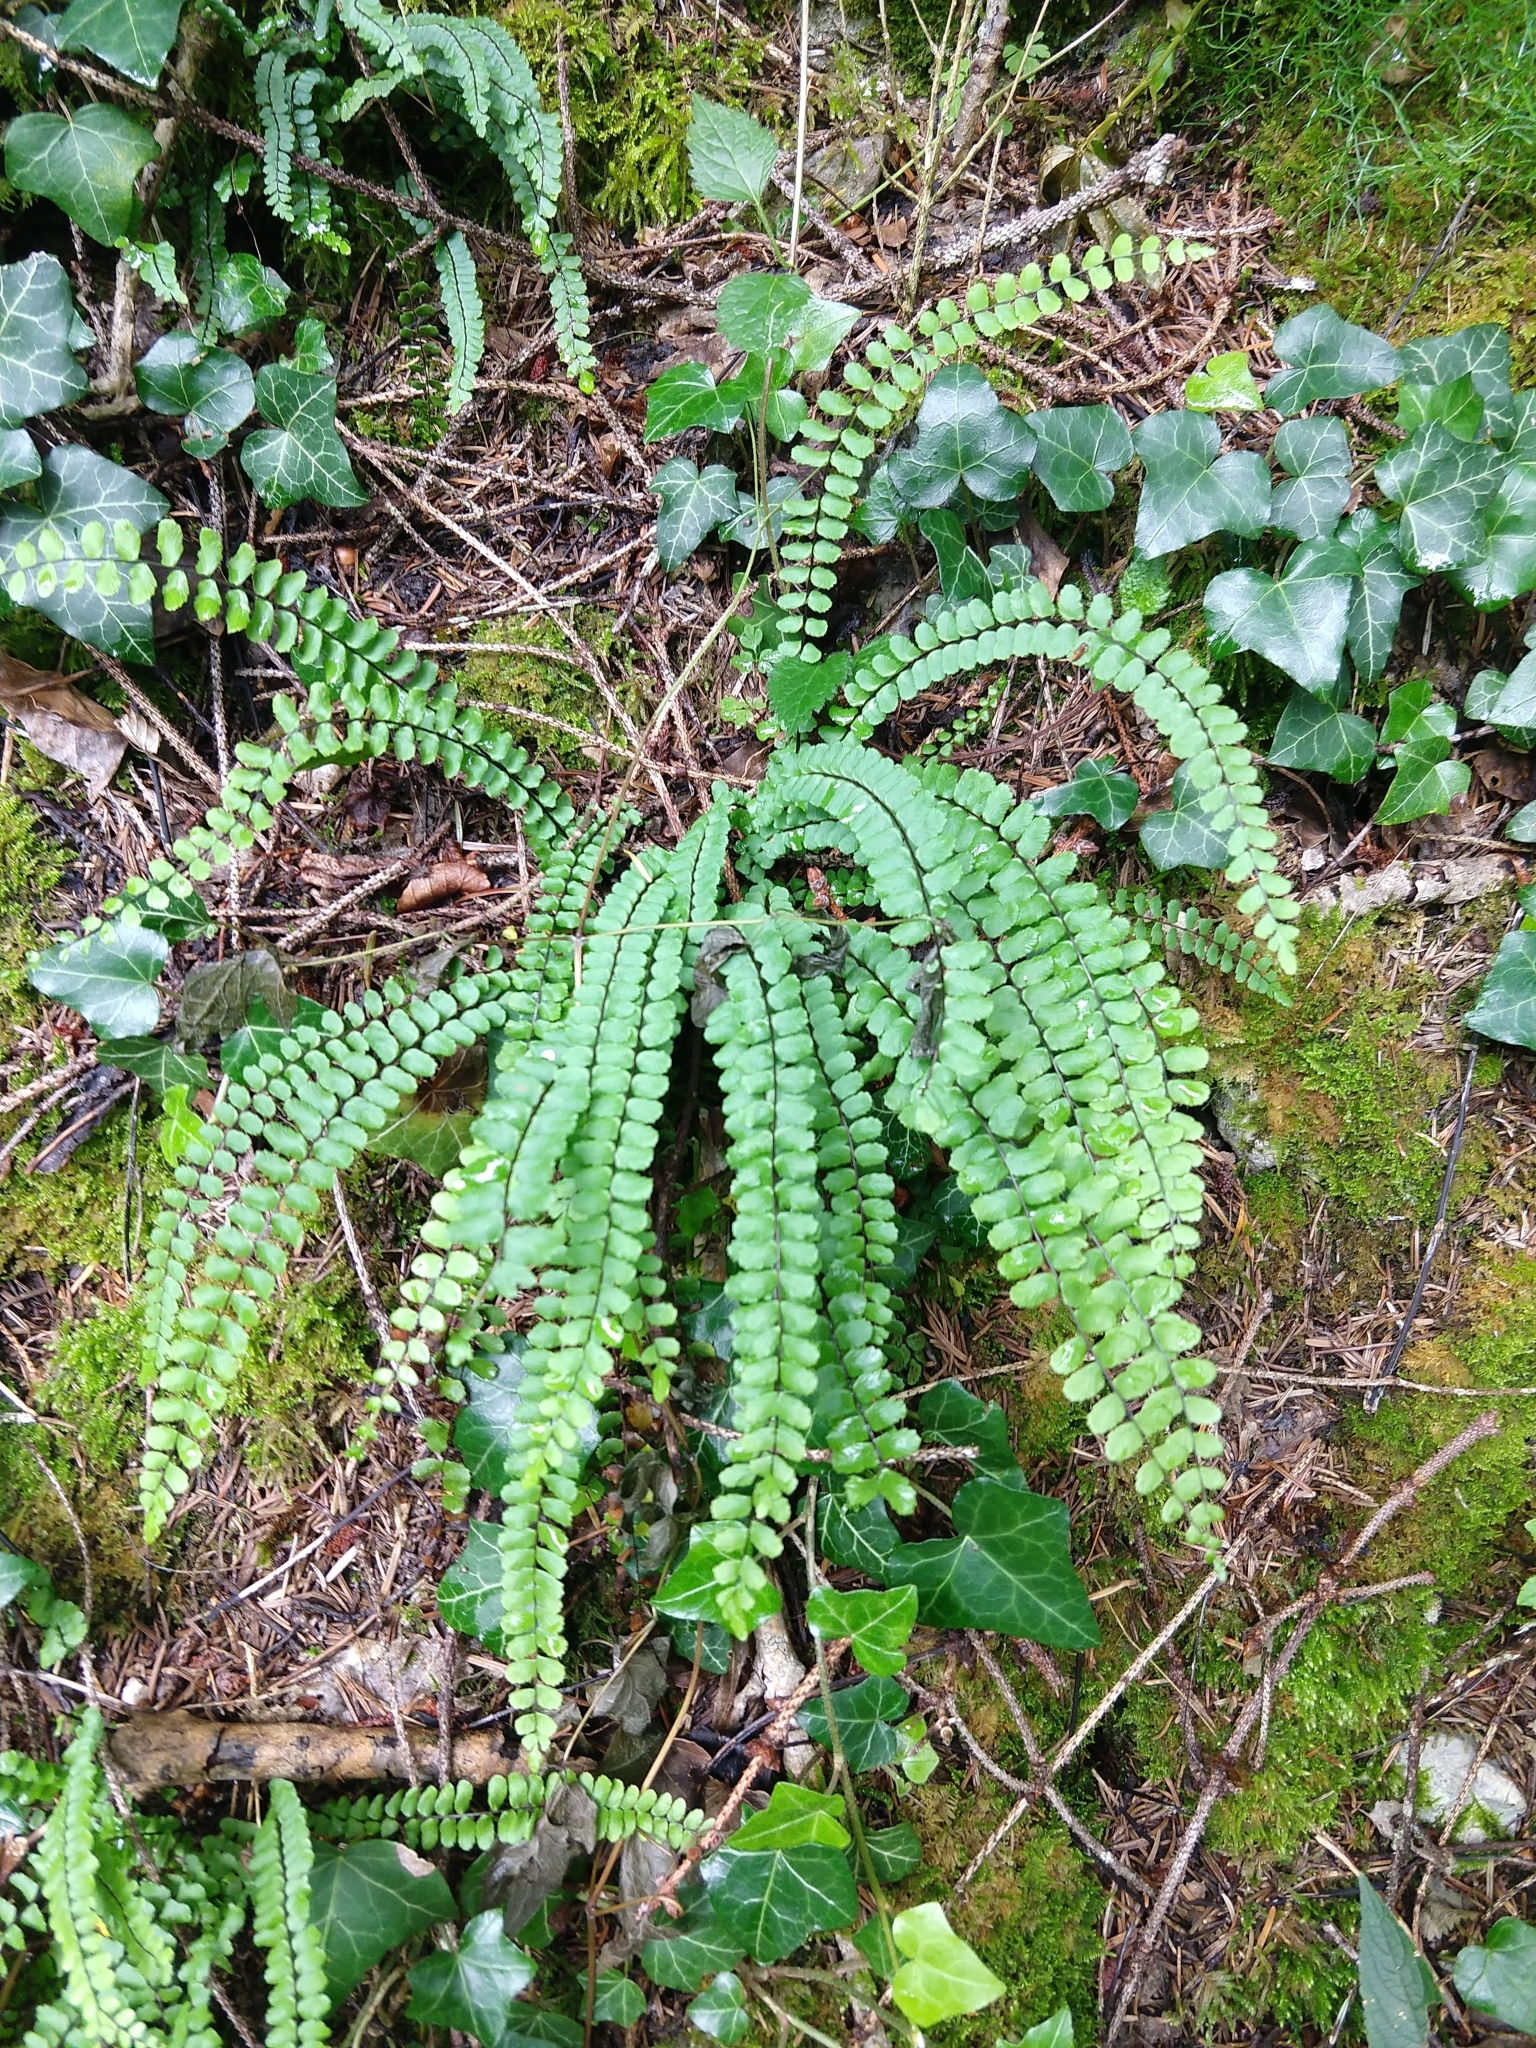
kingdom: Plantae
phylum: Tracheophyta
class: Polypodiopsida
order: Polypodiales
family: Aspleniaceae
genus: Asplenium
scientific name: Asplenium trichomanes
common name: Maidenhair spleenwort
